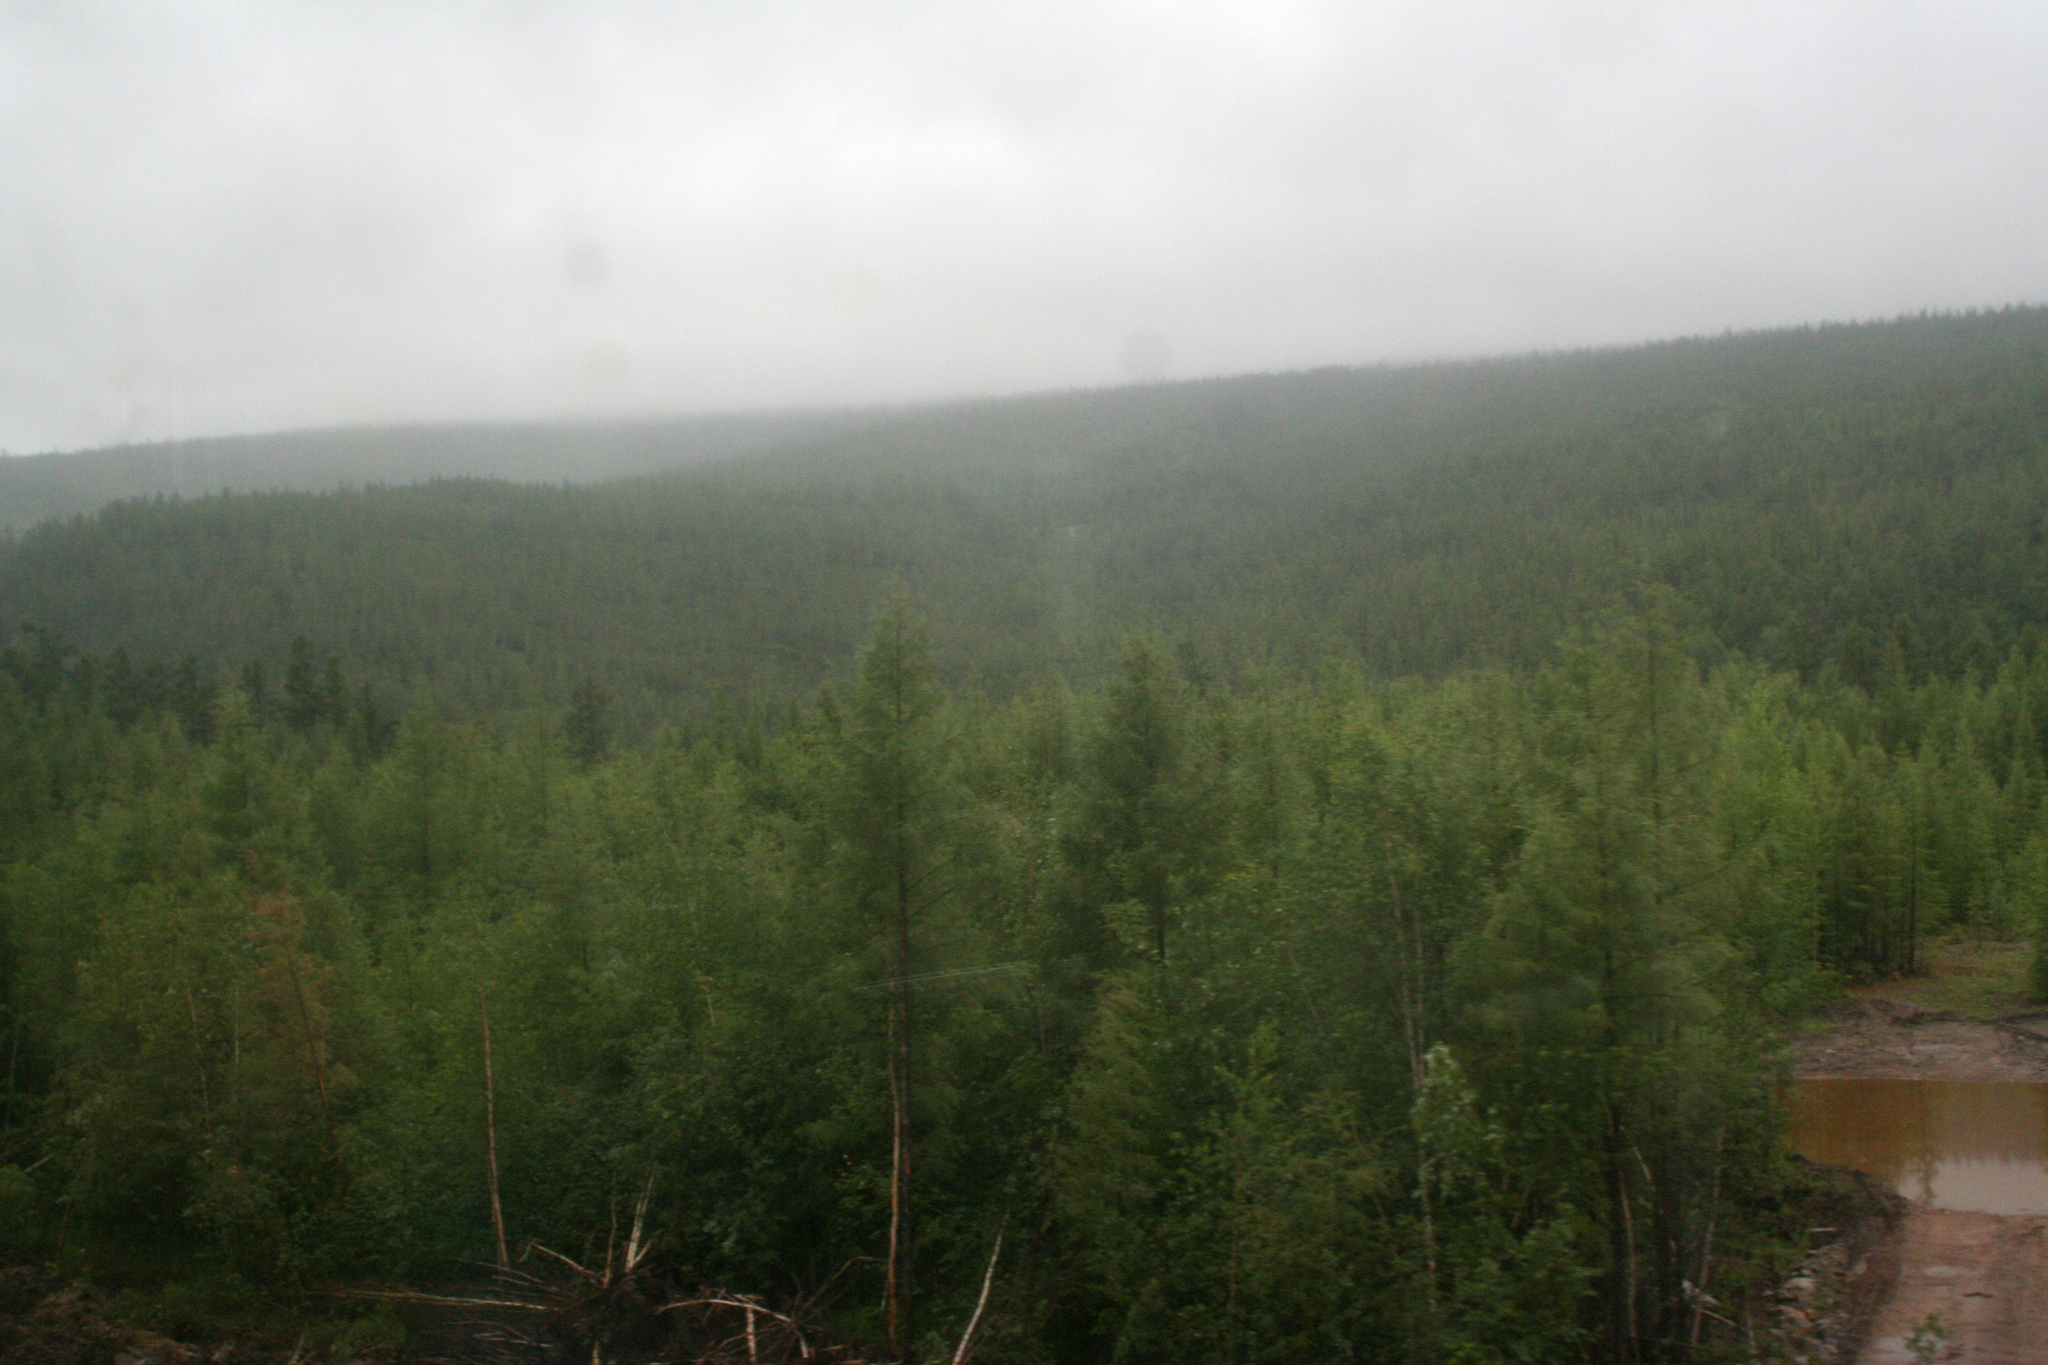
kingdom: Plantae
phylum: Tracheophyta
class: Pinopsida
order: Pinales
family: Pinaceae
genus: Larix
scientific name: Larix gmelinii
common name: Dahurian larch
